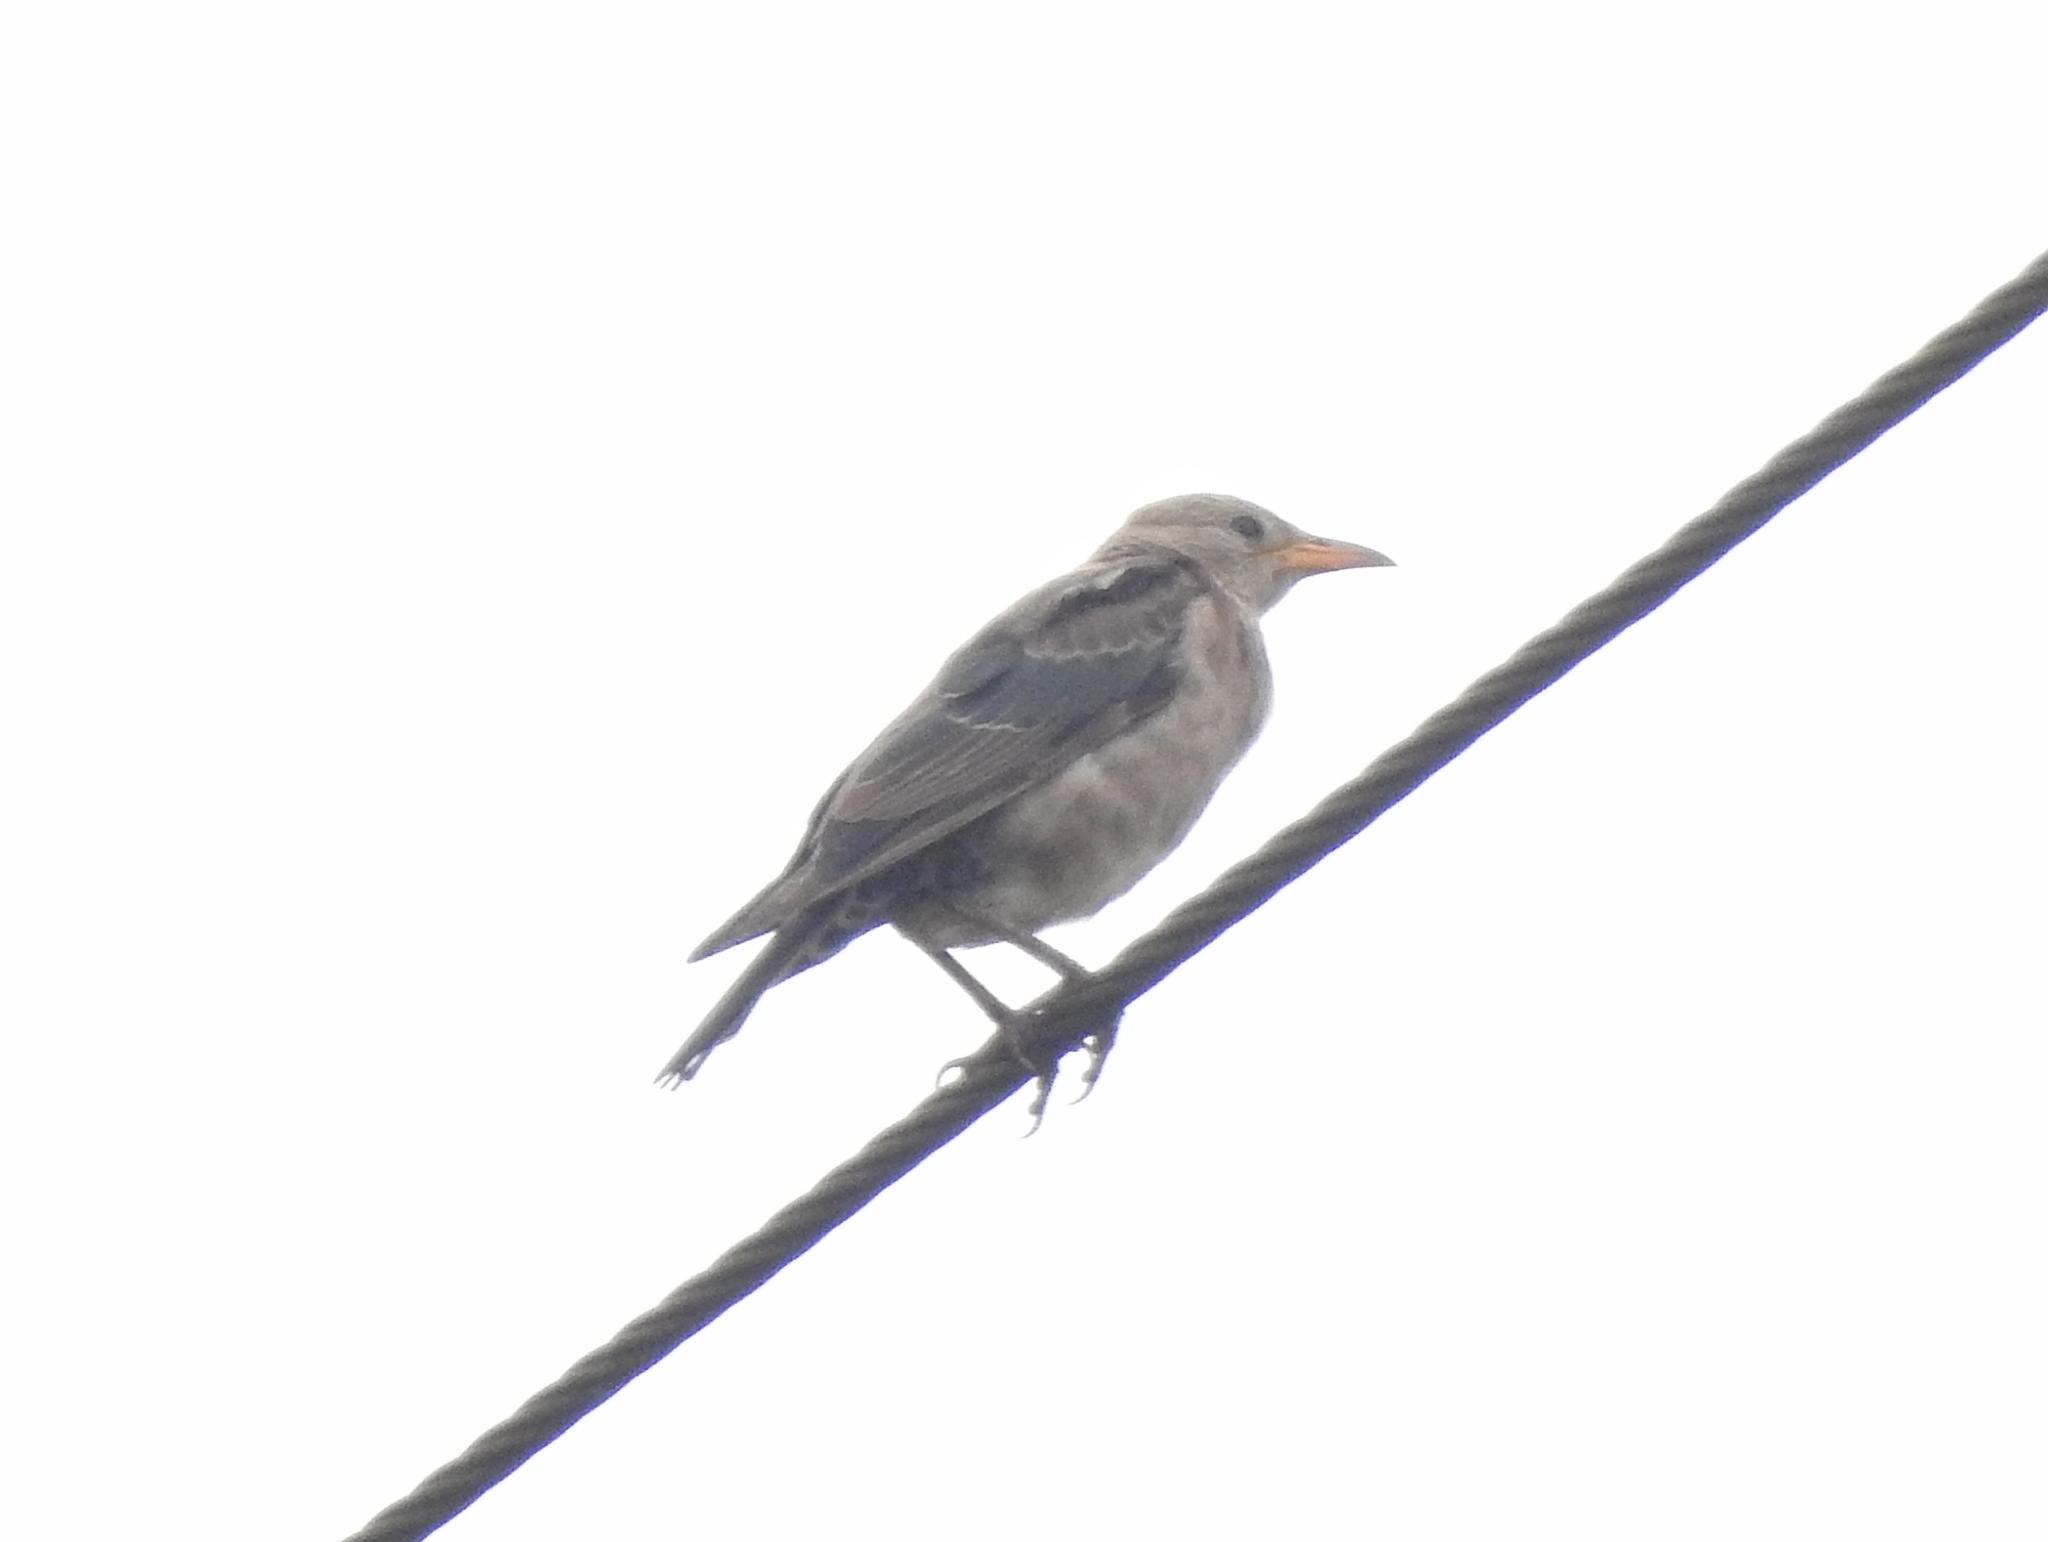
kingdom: Animalia
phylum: Chordata
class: Aves
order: Passeriformes
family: Sturnidae
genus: Pastor
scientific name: Pastor roseus
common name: Rosy starling
